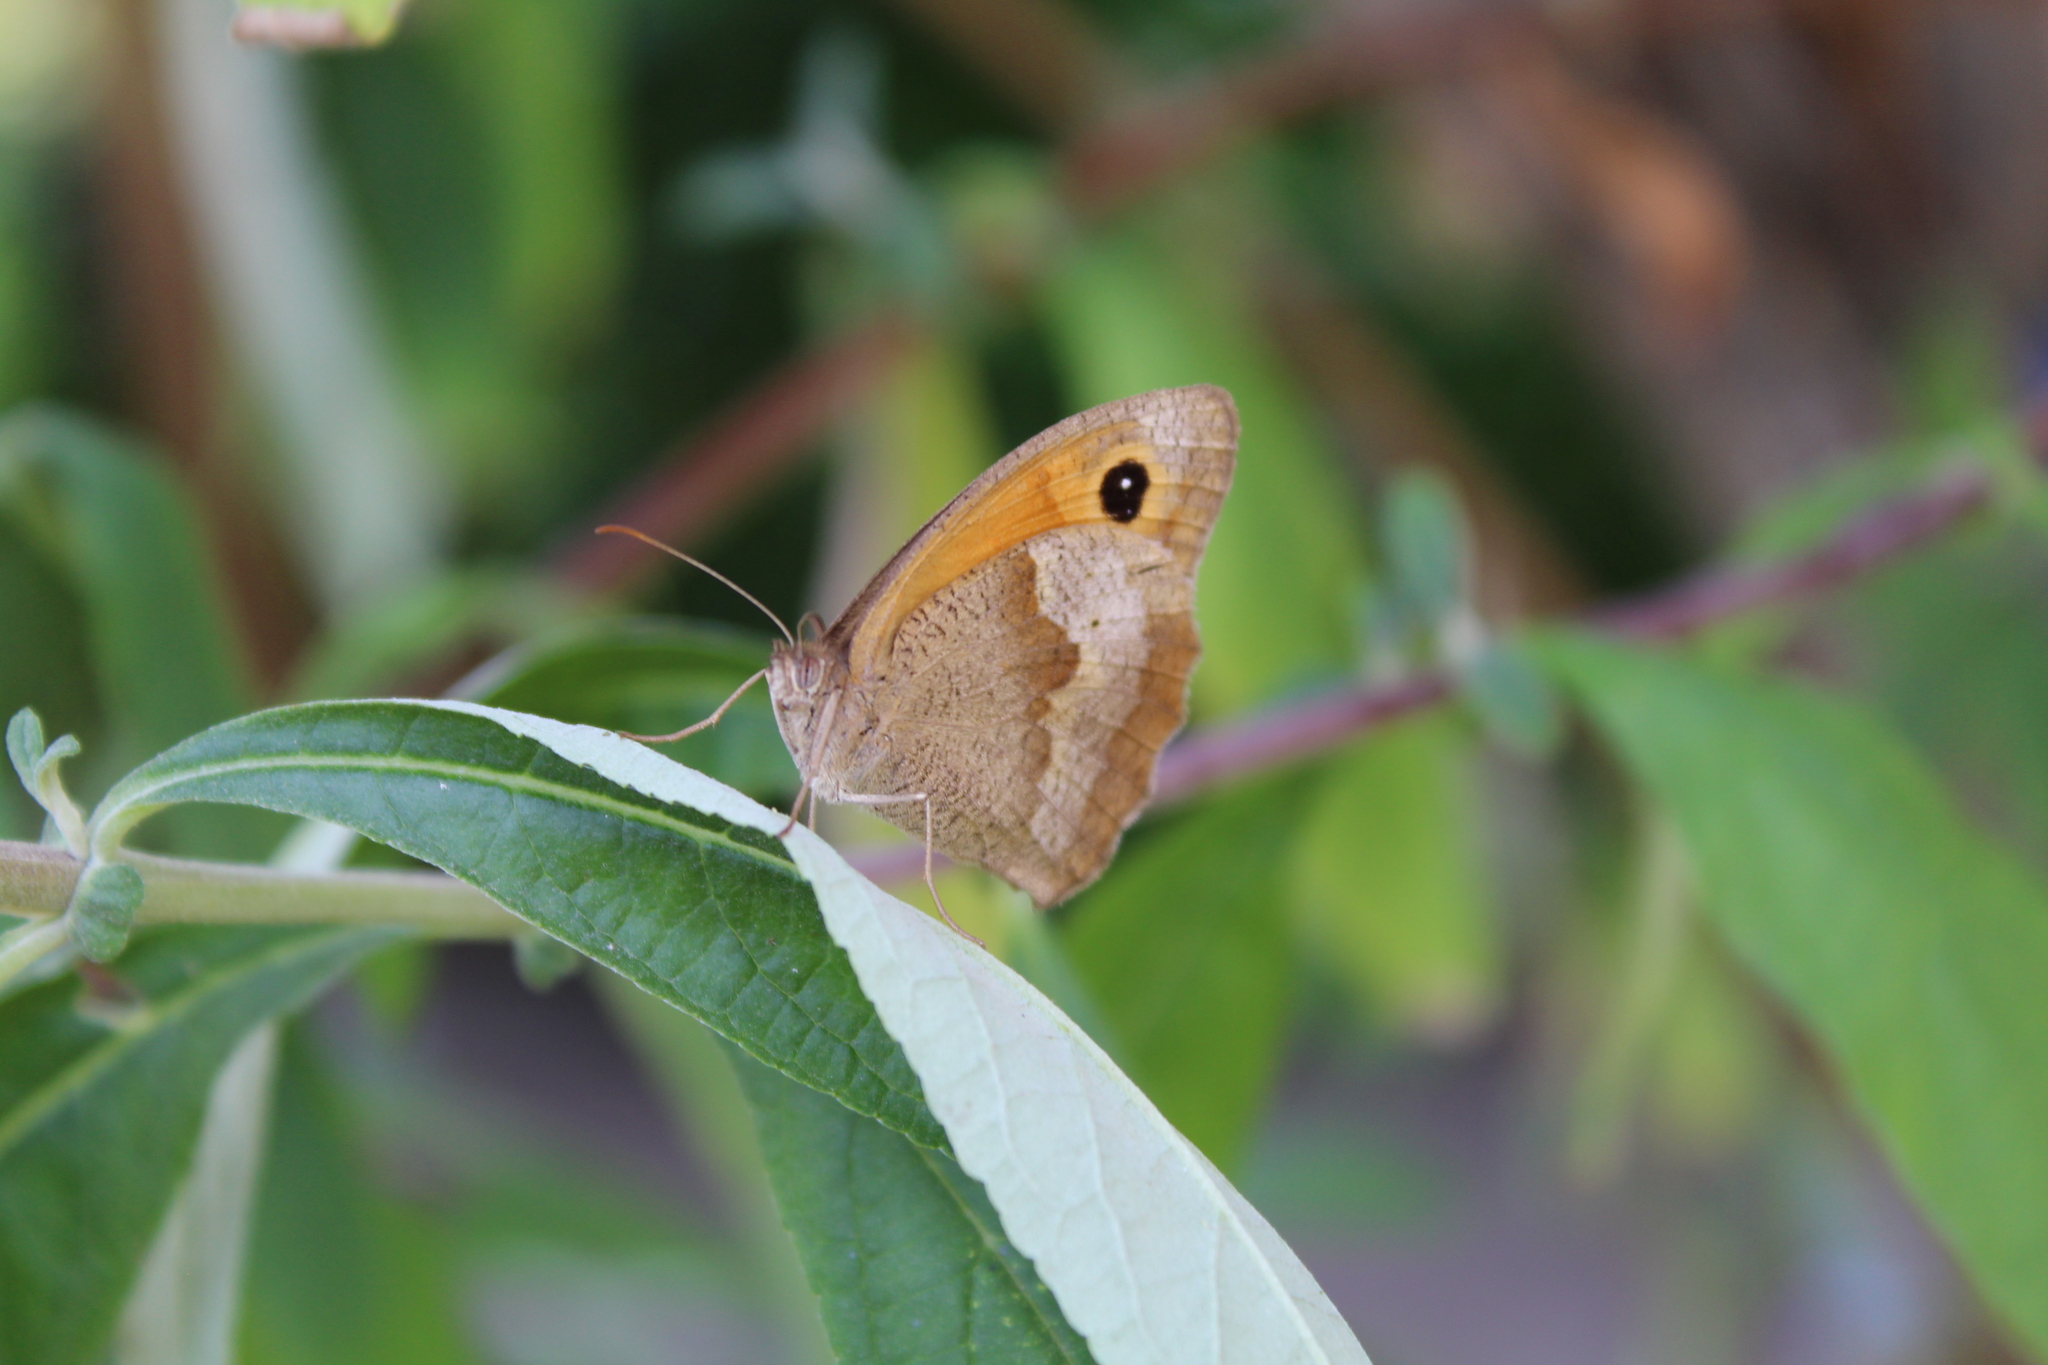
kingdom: Animalia
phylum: Arthropoda
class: Insecta
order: Lepidoptera
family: Nymphalidae
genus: Maniola
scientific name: Maniola jurtina
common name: Meadow brown
